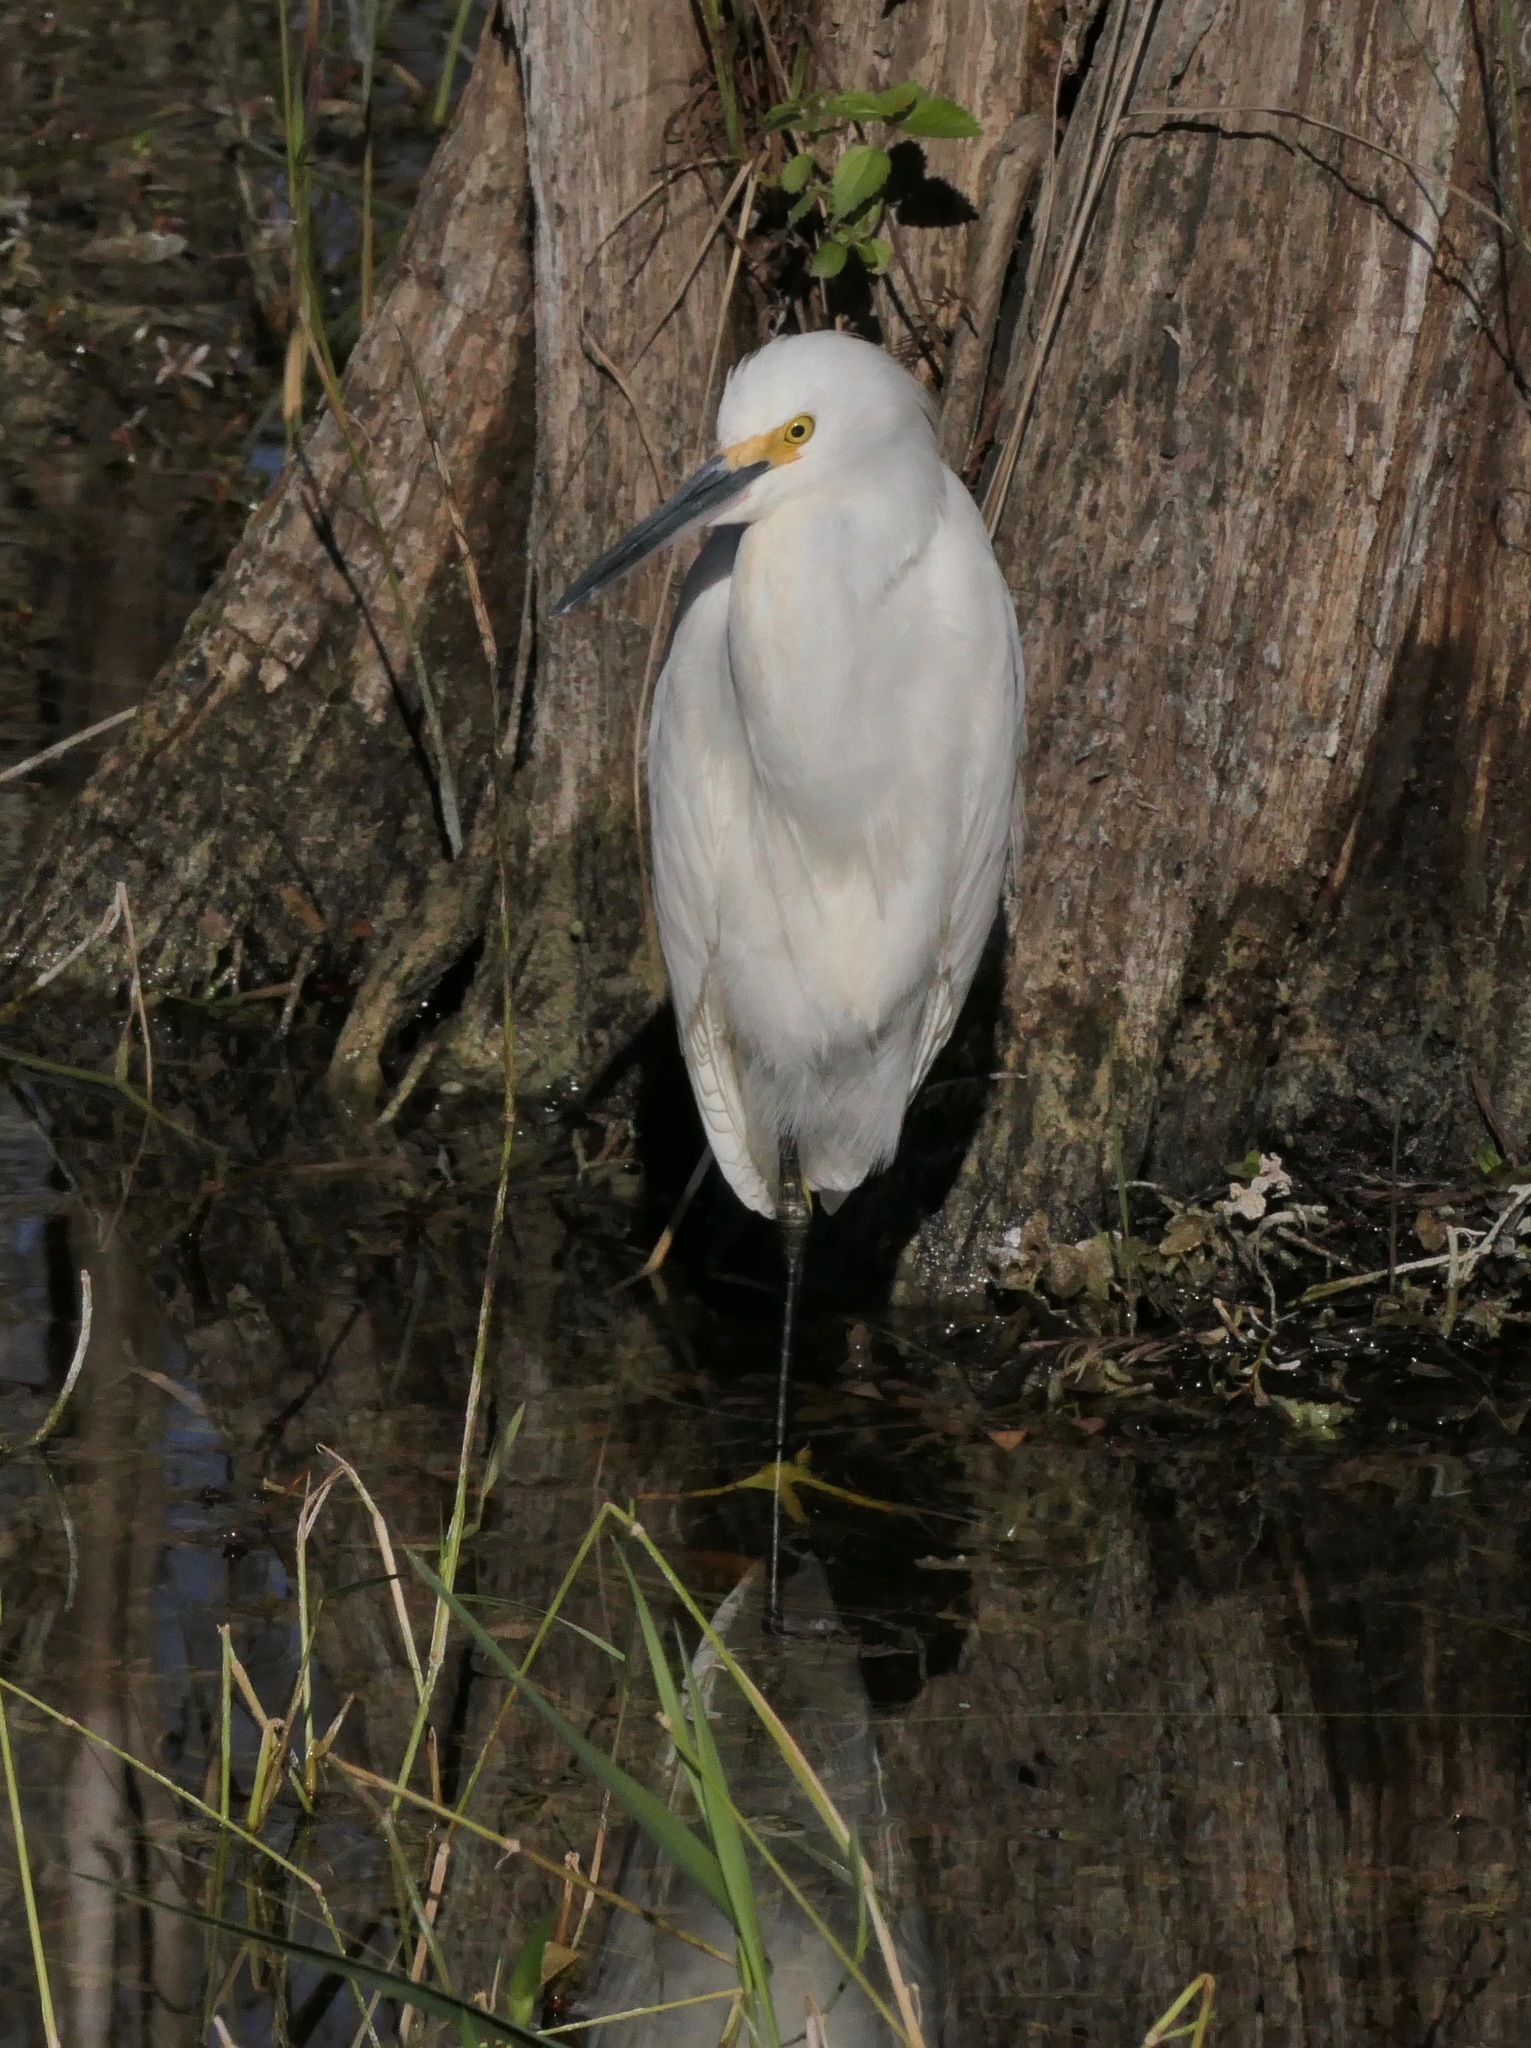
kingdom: Animalia
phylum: Chordata
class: Aves
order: Pelecaniformes
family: Ardeidae
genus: Egretta
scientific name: Egretta thula
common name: Snowy egret
